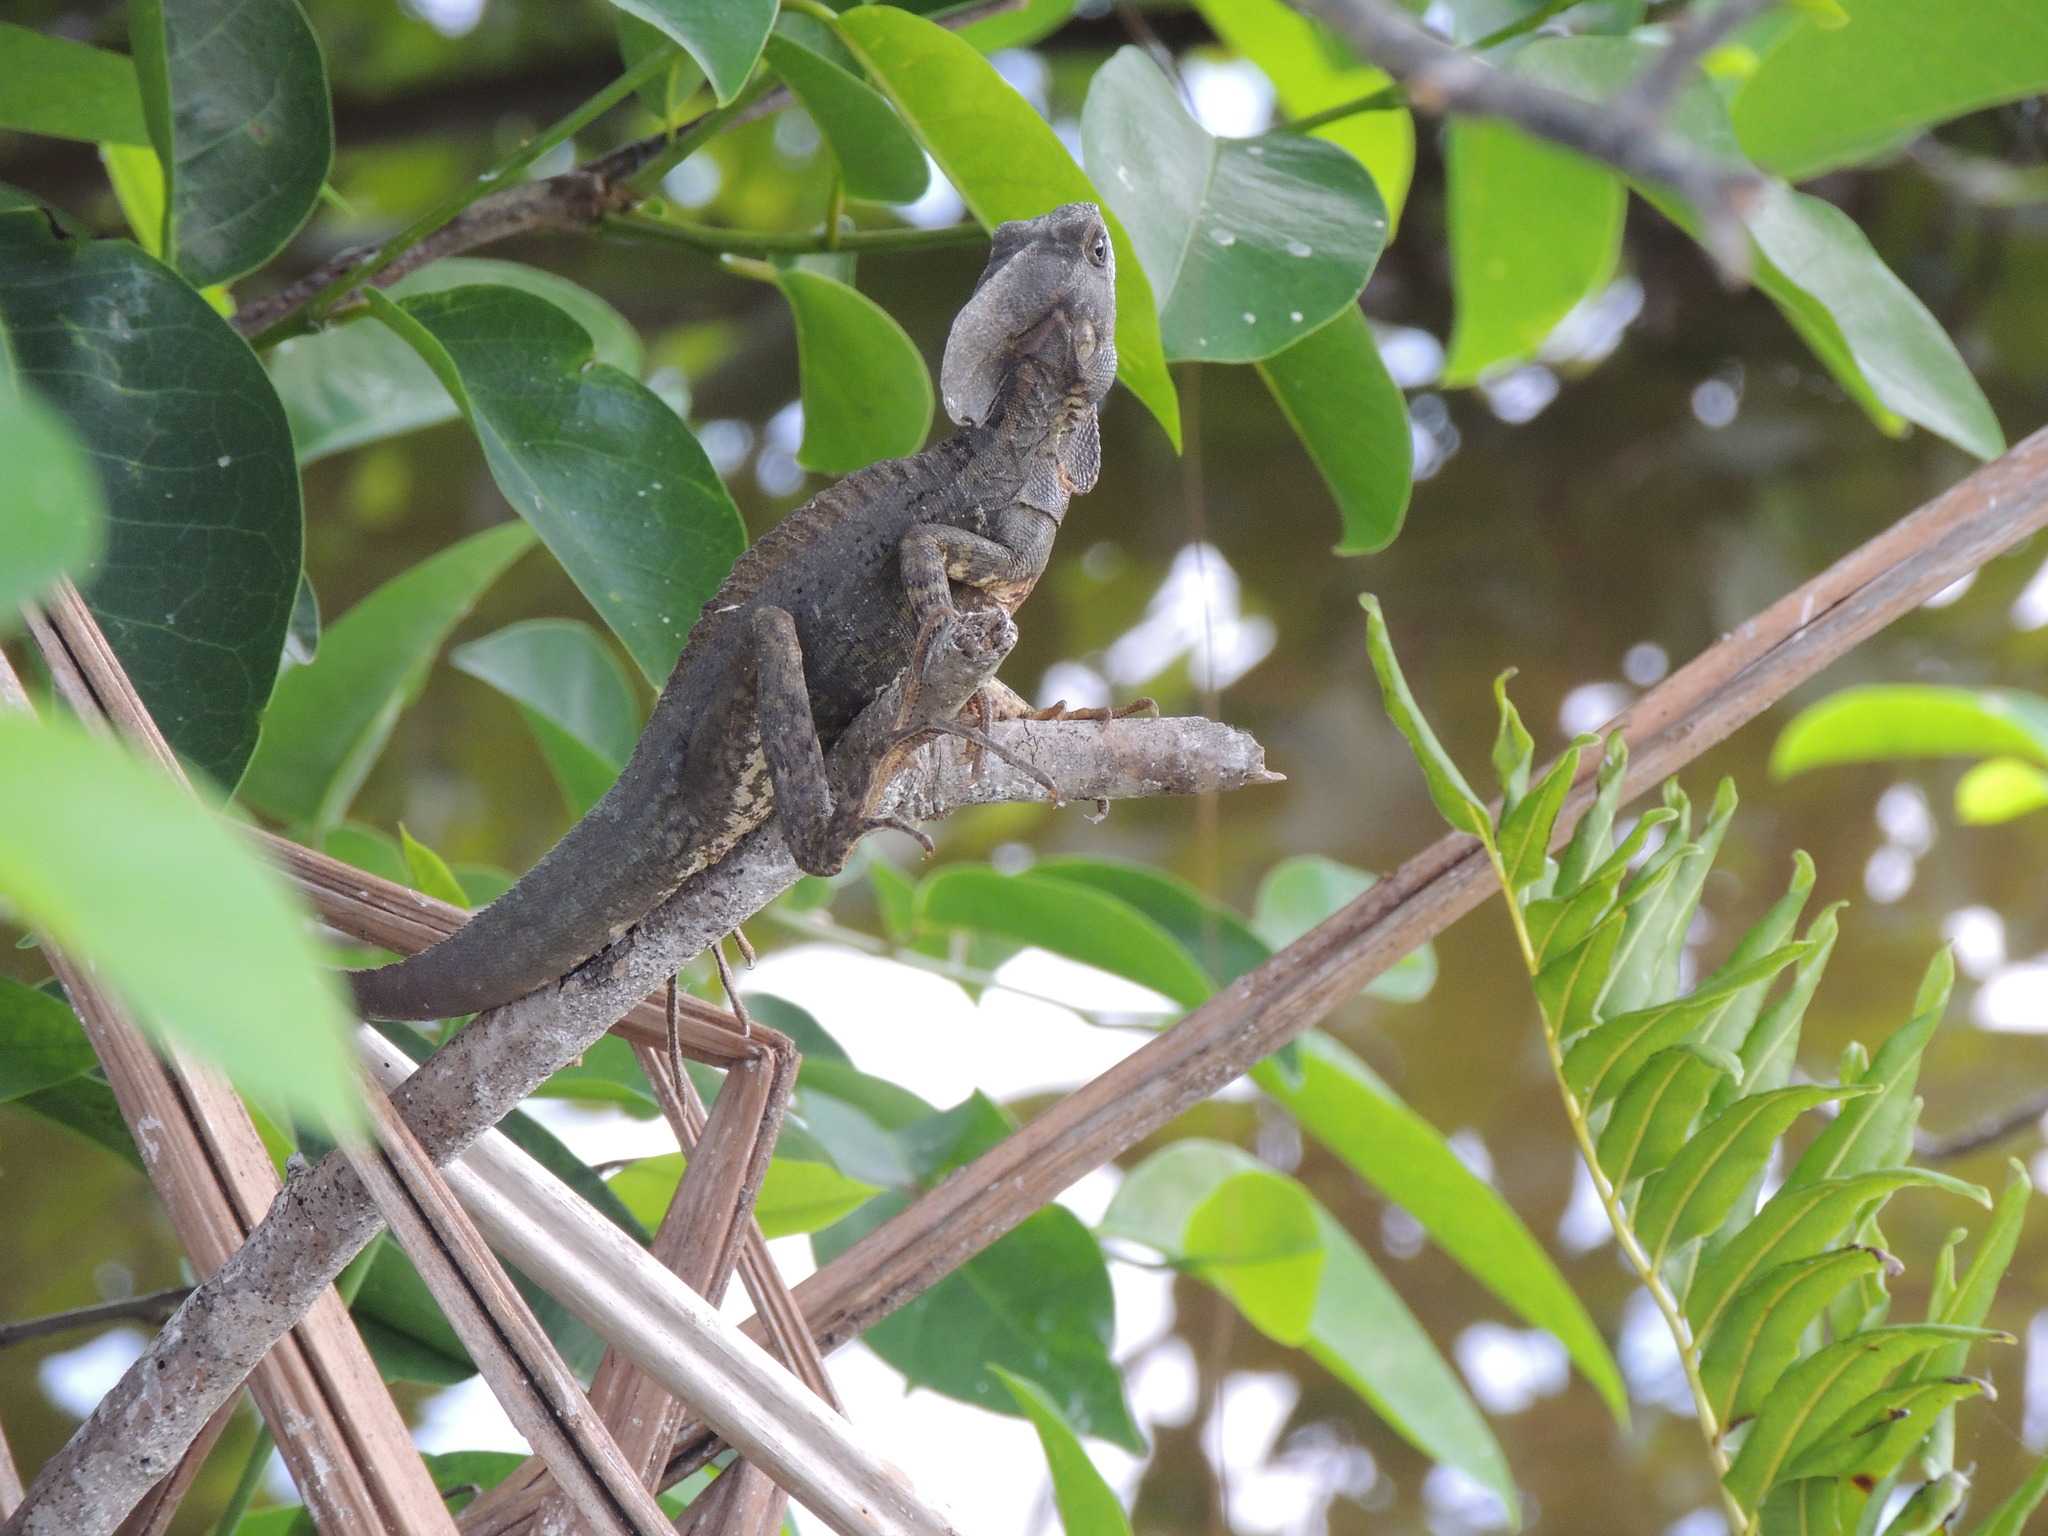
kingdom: Animalia
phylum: Chordata
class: Squamata
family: Corytophanidae
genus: Basiliscus
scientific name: Basiliscus vittatus
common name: Brown basilisk
